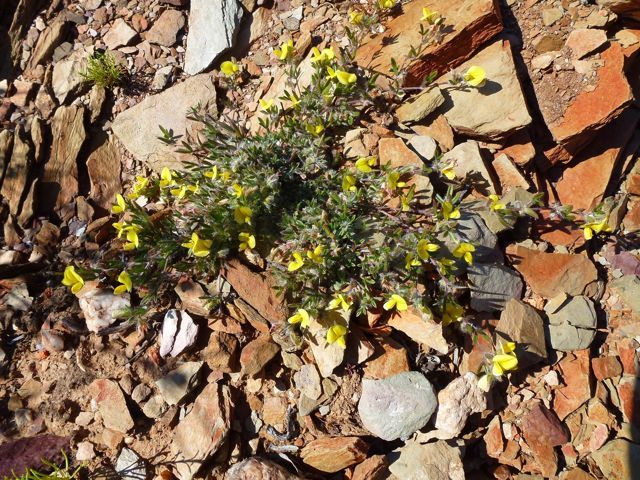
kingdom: Plantae
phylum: Tracheophyta
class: Magnoliopsida
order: Fabales
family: Fabaceae
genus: Lotononis
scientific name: Lotononis pungens
